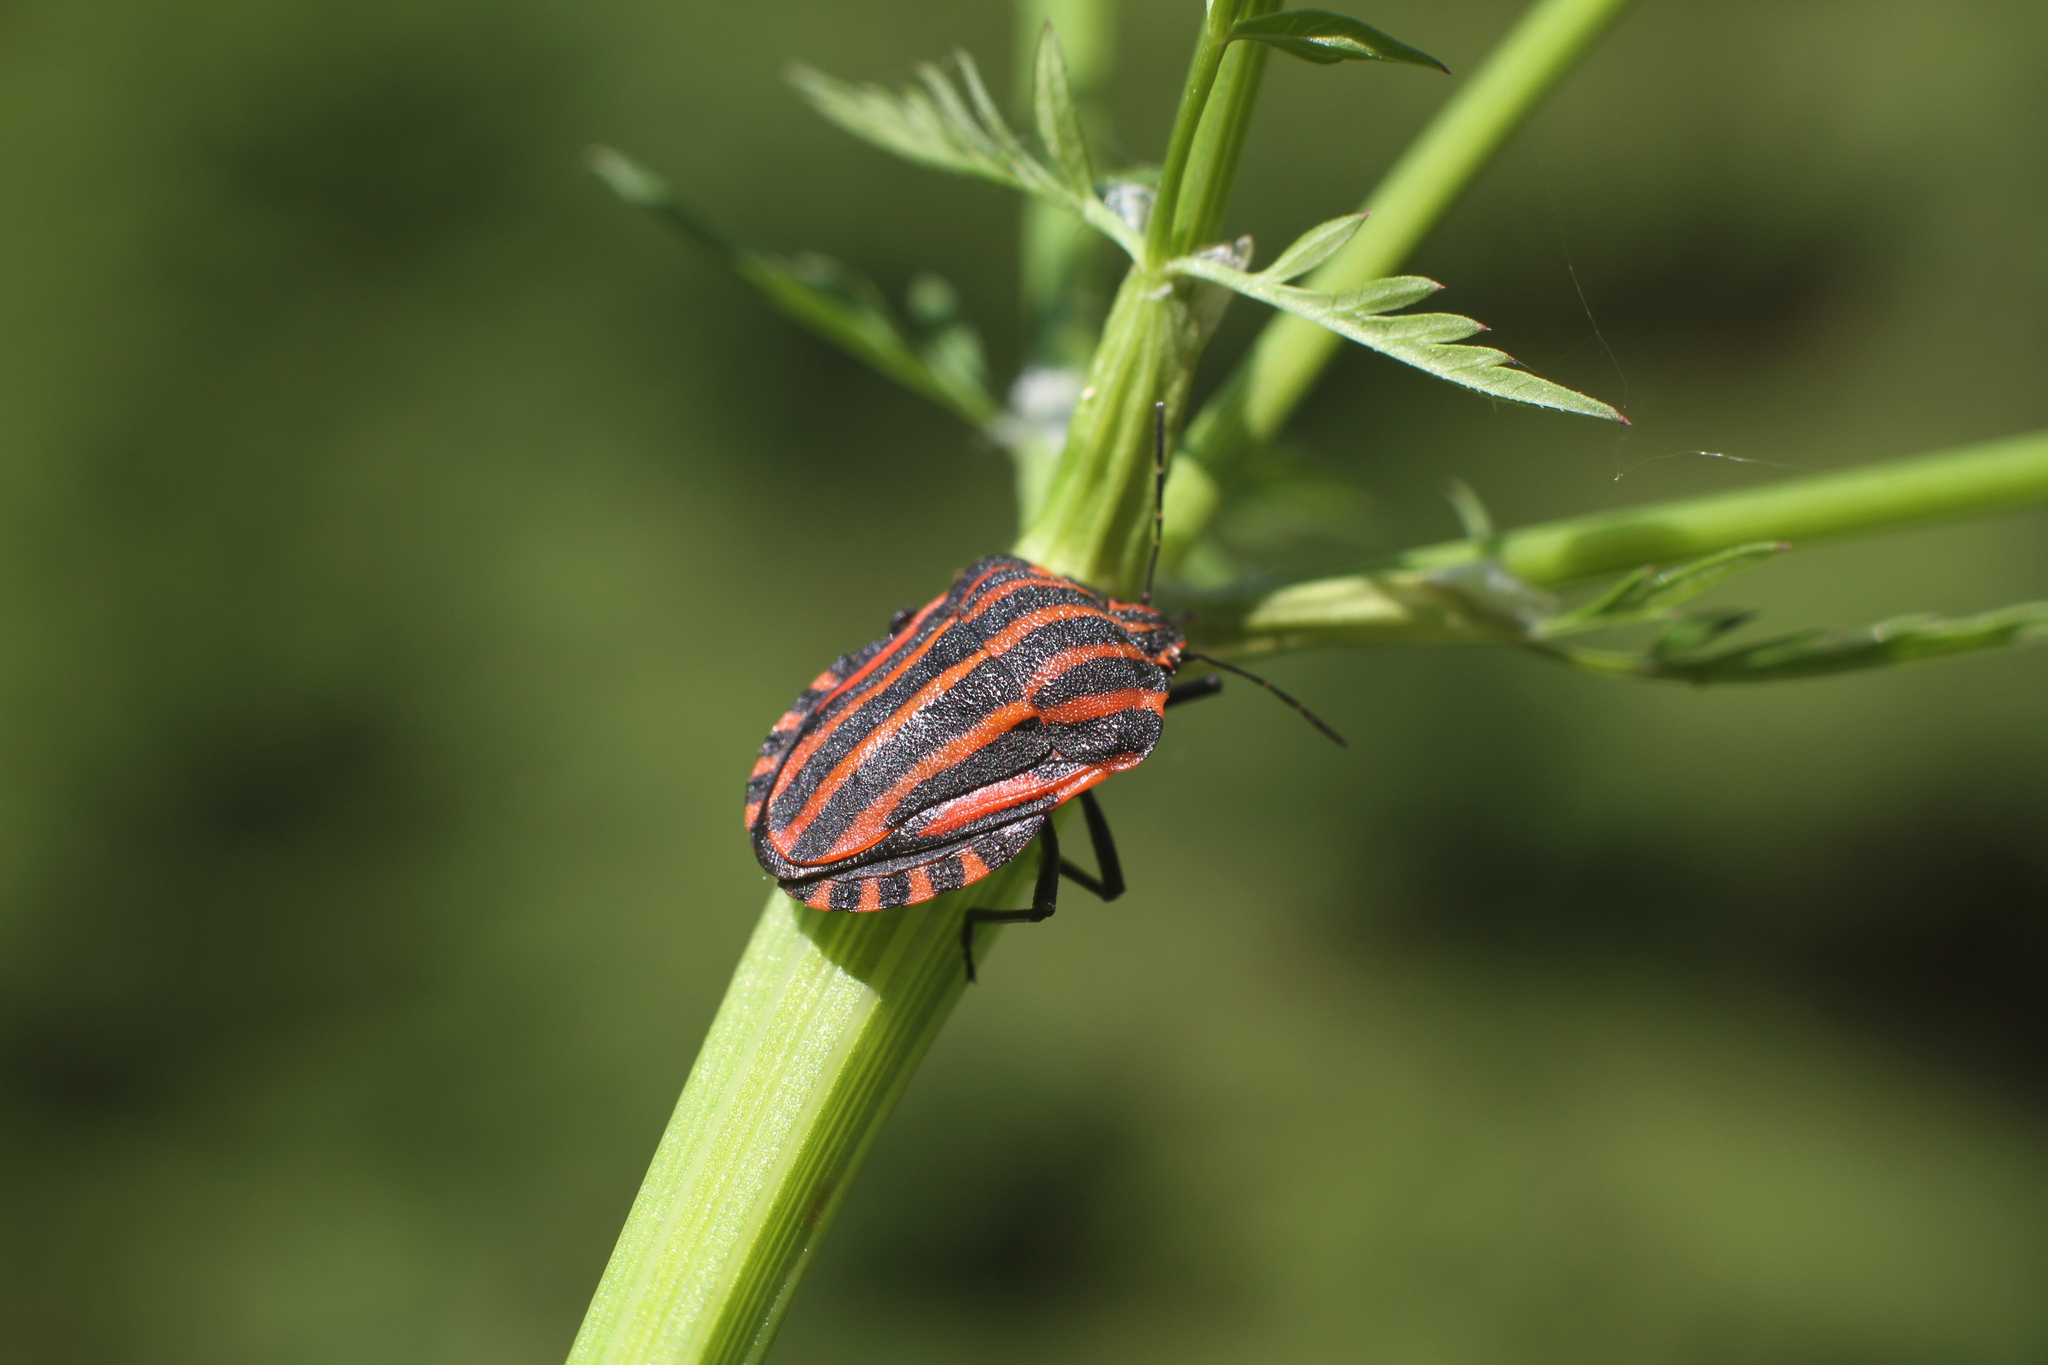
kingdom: Animalia
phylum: Arthropoda
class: Insecta
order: Hemiptera
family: Pentatomidae
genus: Graphosoma
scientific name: Graphosoma italicum
